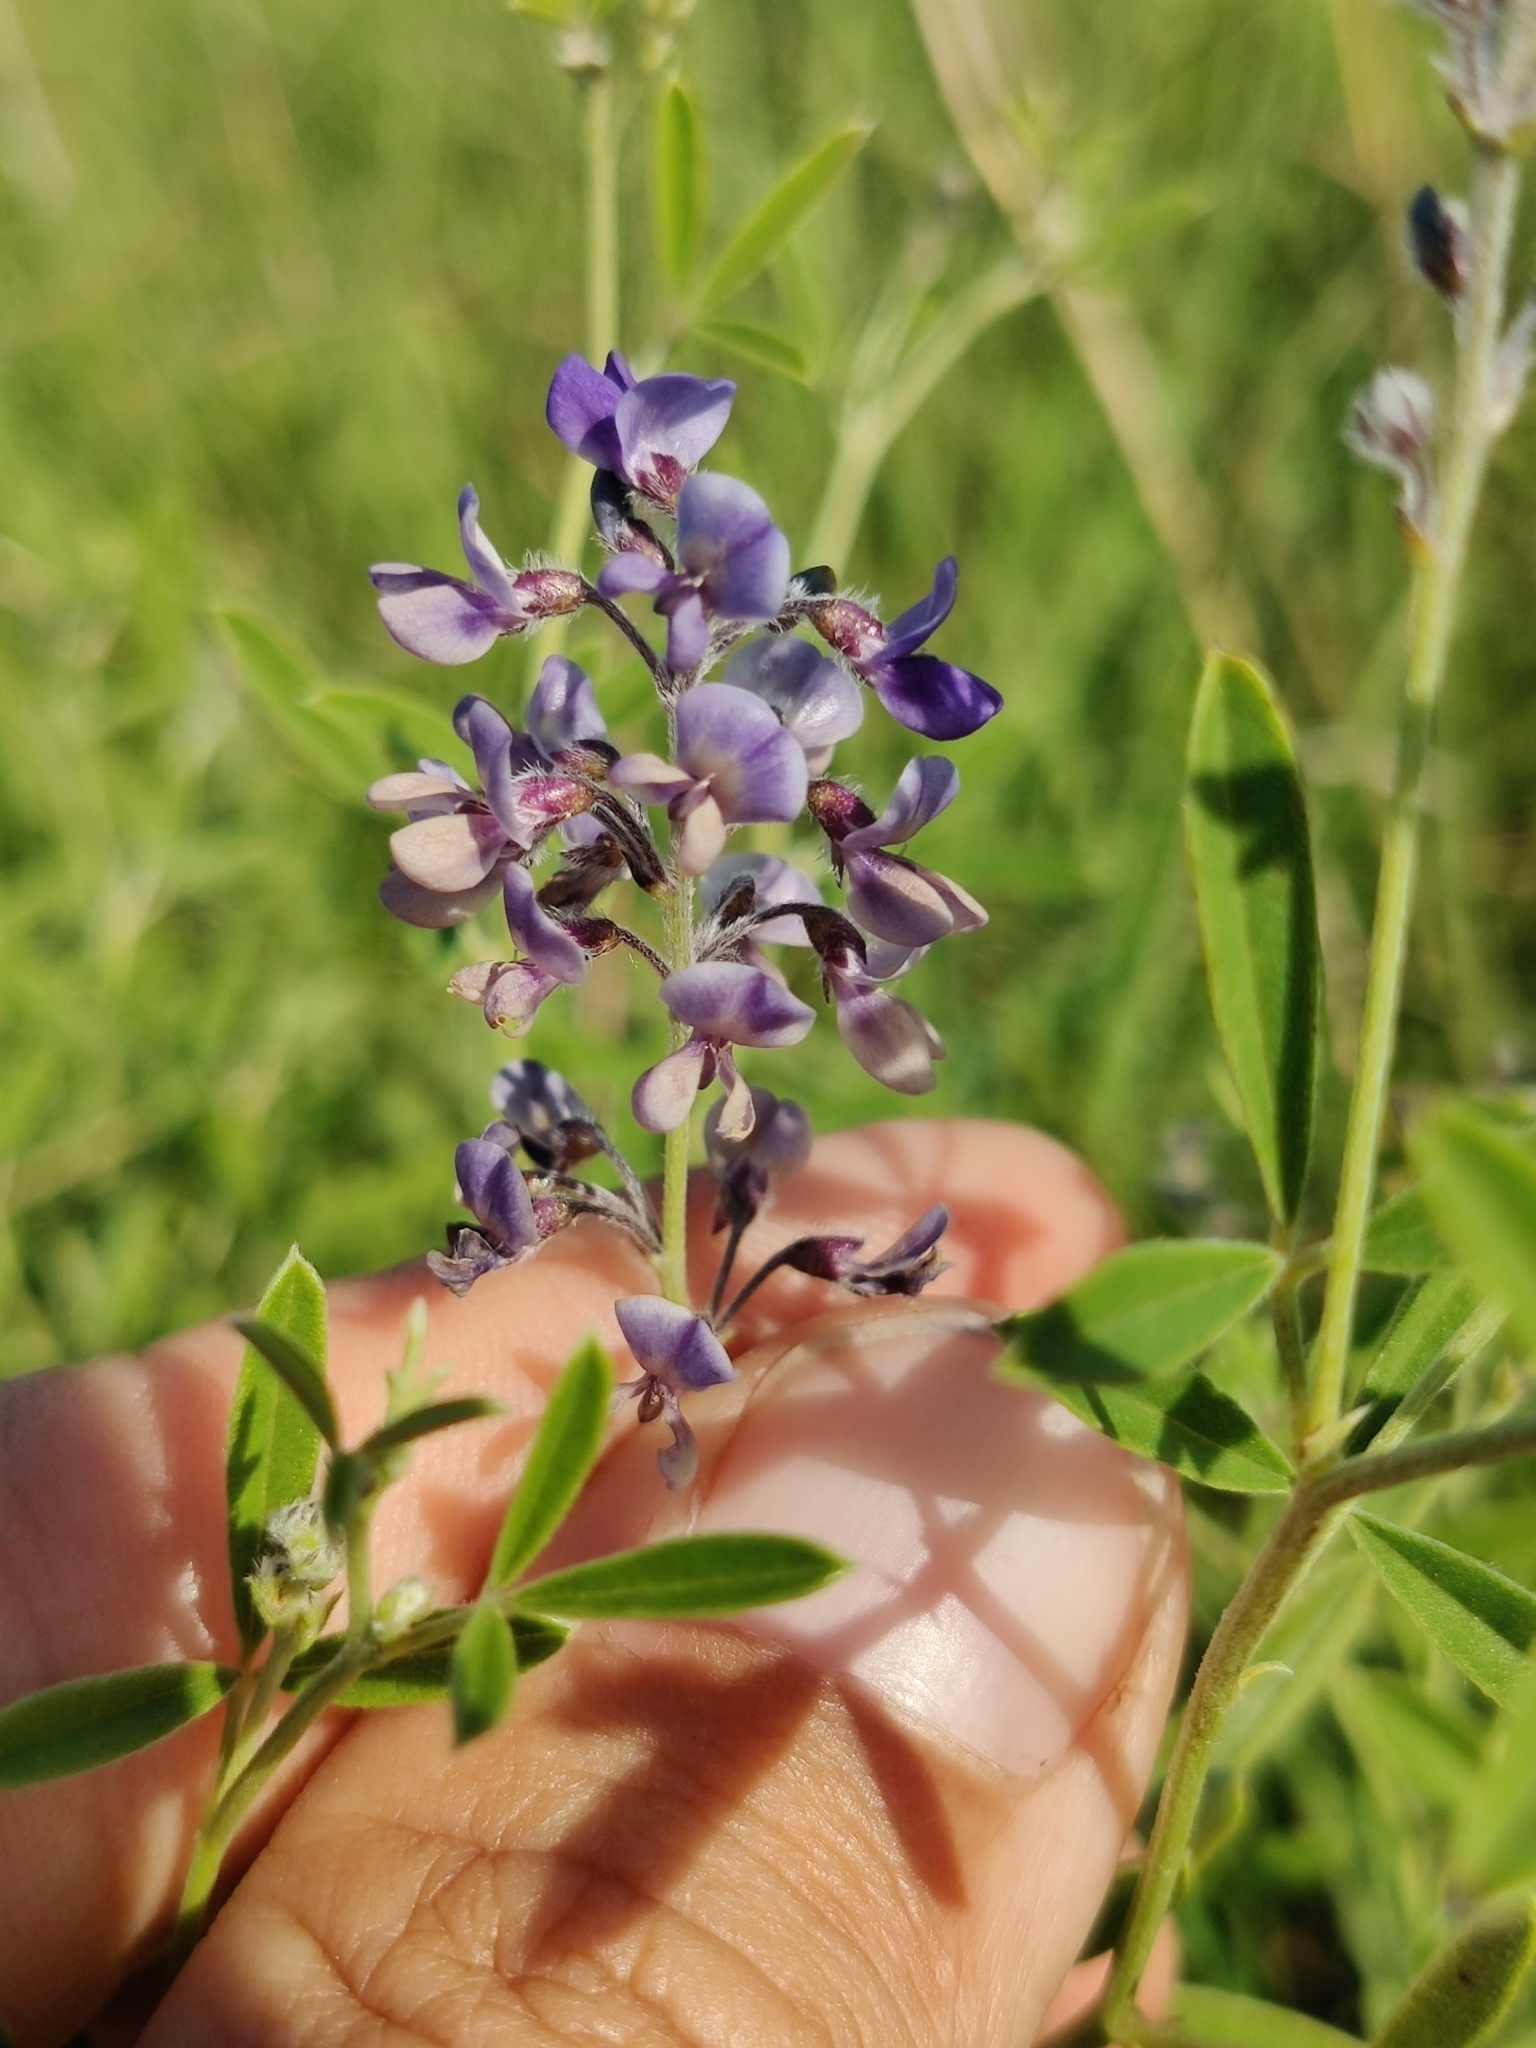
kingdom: Plantae
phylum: Tracheophyta
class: Magnoliopsida
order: Fabales
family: Fabaceae
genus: Pediomelum
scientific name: Pediomelum tenuiflorum
